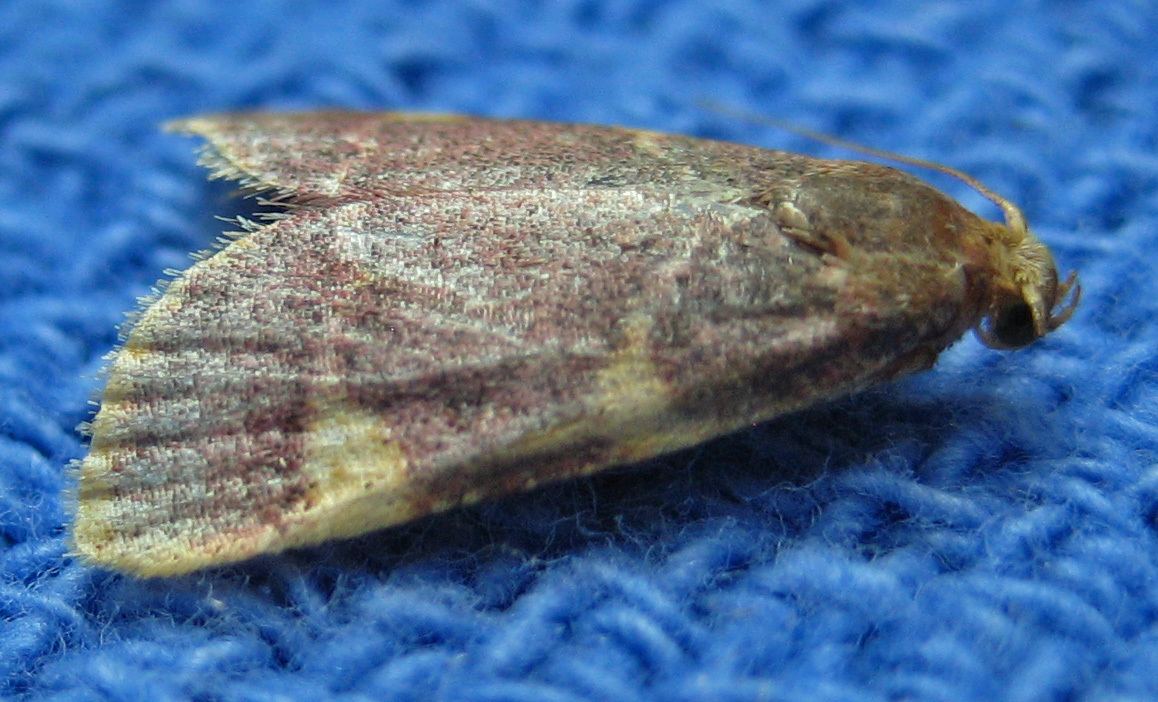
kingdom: Animalia
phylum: Arthropoda
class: Insecta
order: Lepidoptera
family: Pyralidae
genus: Hypsopygia
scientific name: Hypsopygia olinalis
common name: Yellow-fringed dolichomia moth
